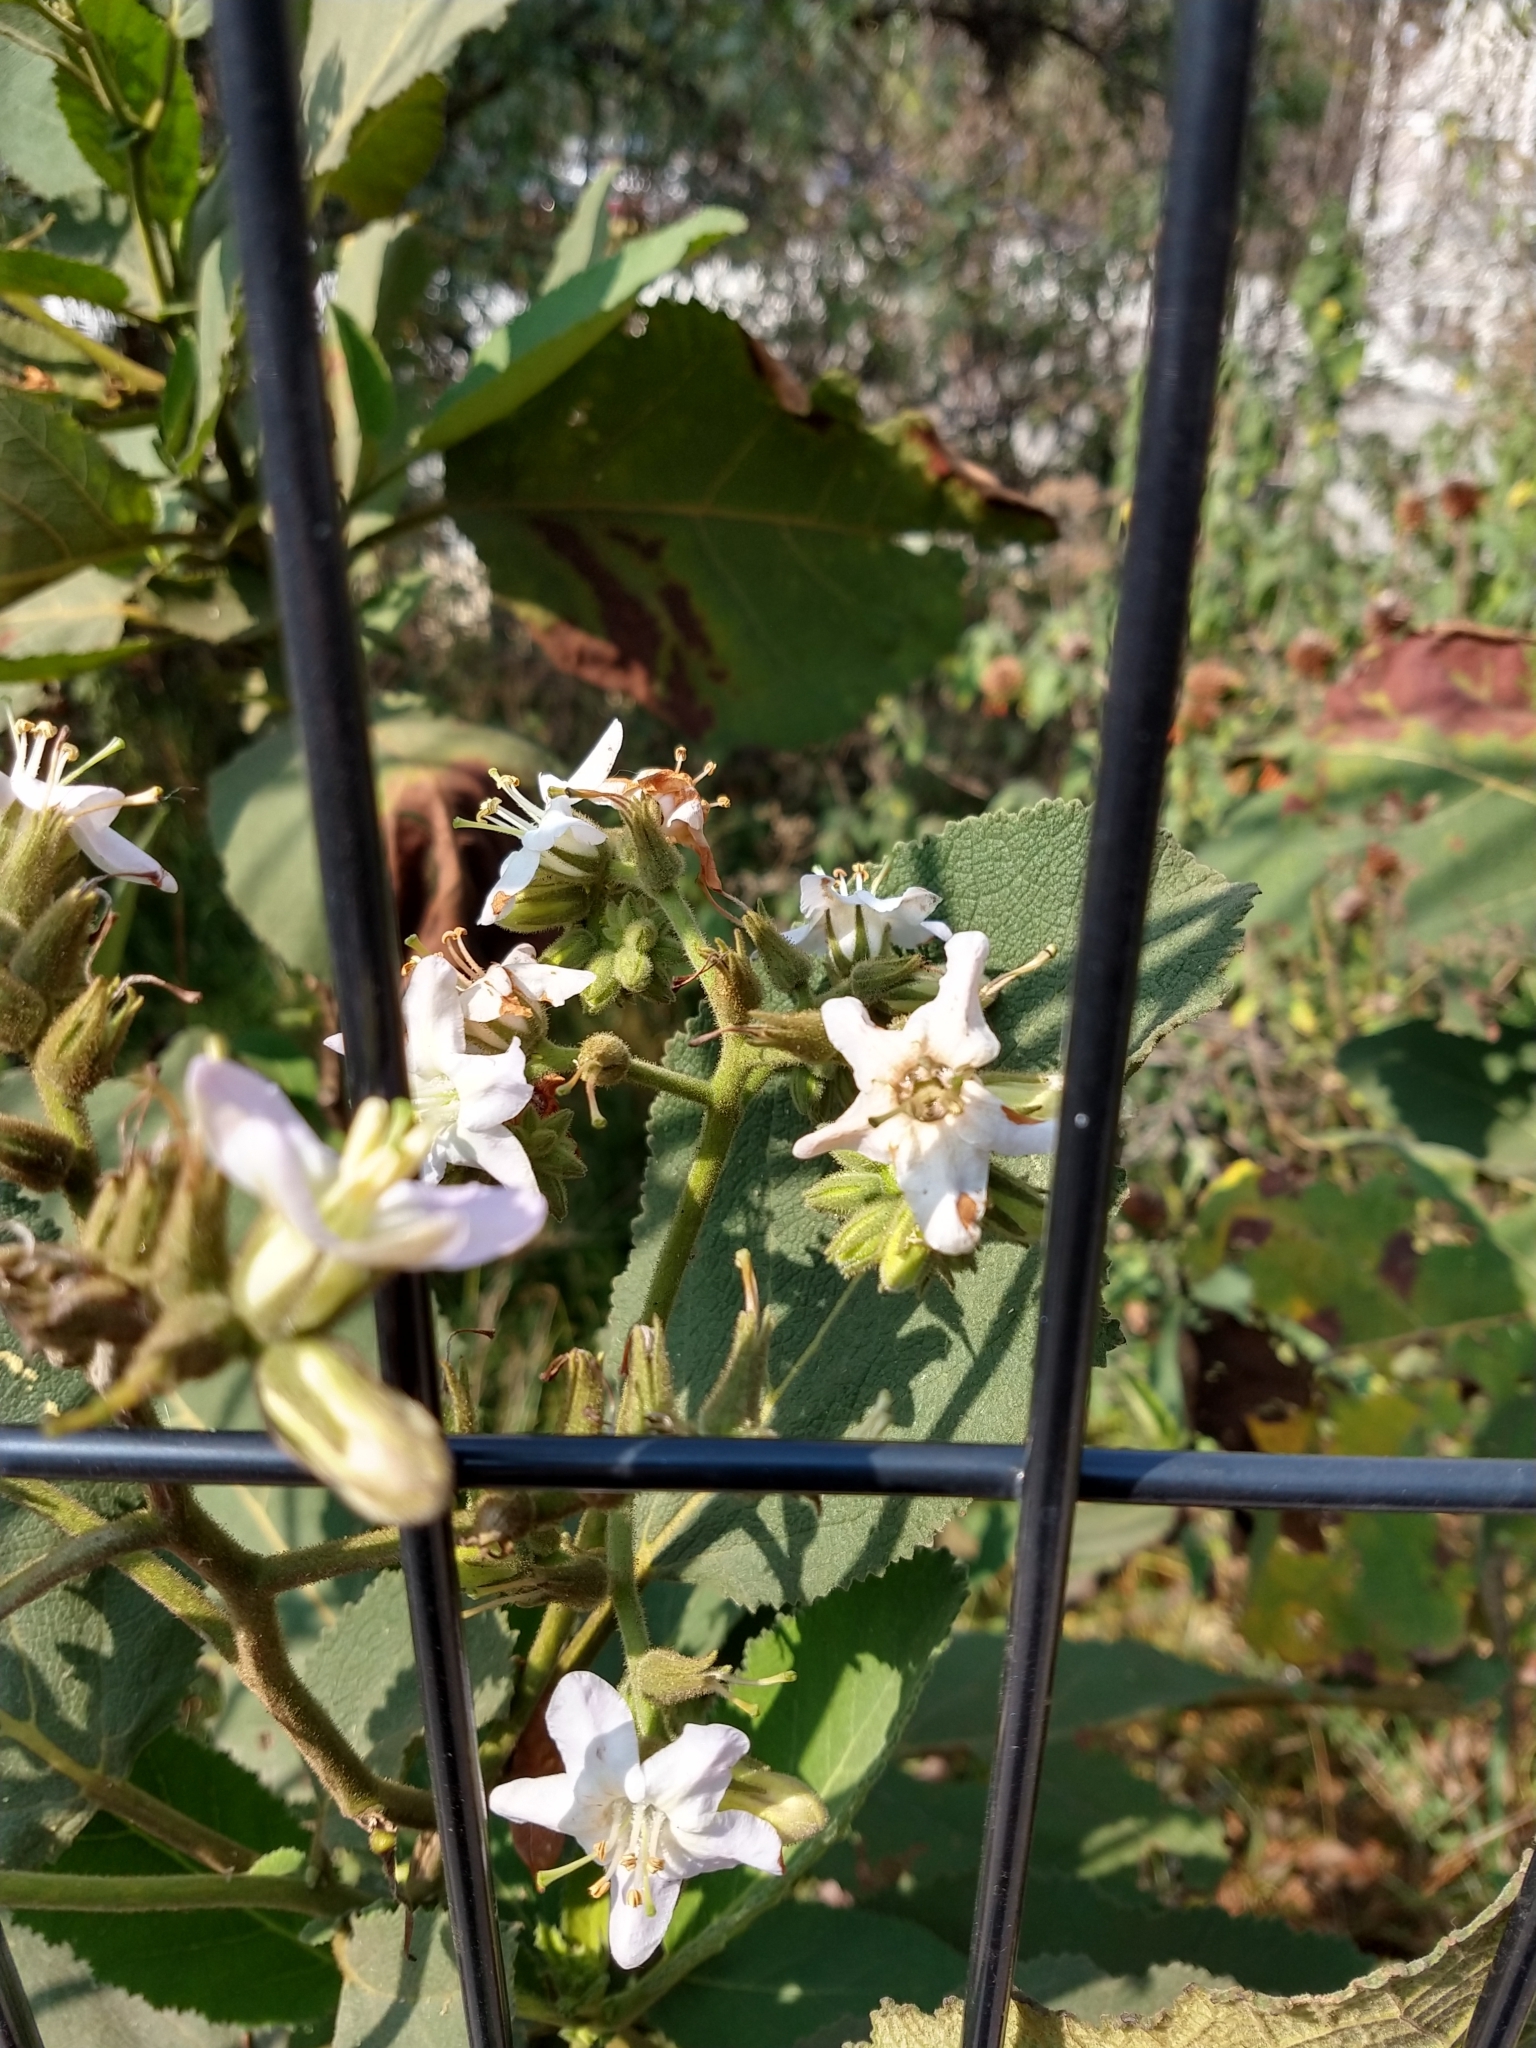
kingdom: Plantae
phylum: Tracheophyta
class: Magnoliopsida
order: Boraginales
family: Namaceae
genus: Wigandia
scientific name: Wigandia urens
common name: Caracus wigandia
